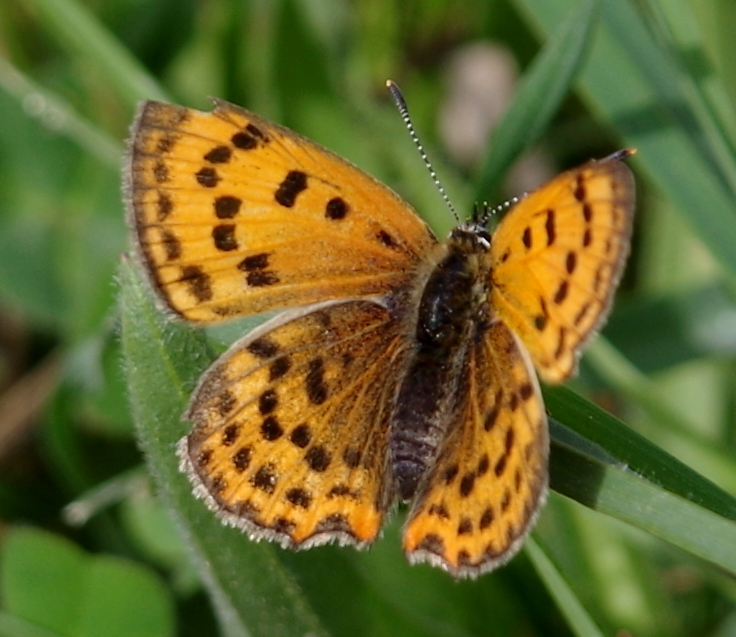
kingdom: Animalia
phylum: Arthropoda
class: Insecta
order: Lepidoptera
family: Lycaenidae
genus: Polyommatus
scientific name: Polyommatus ottomanus
